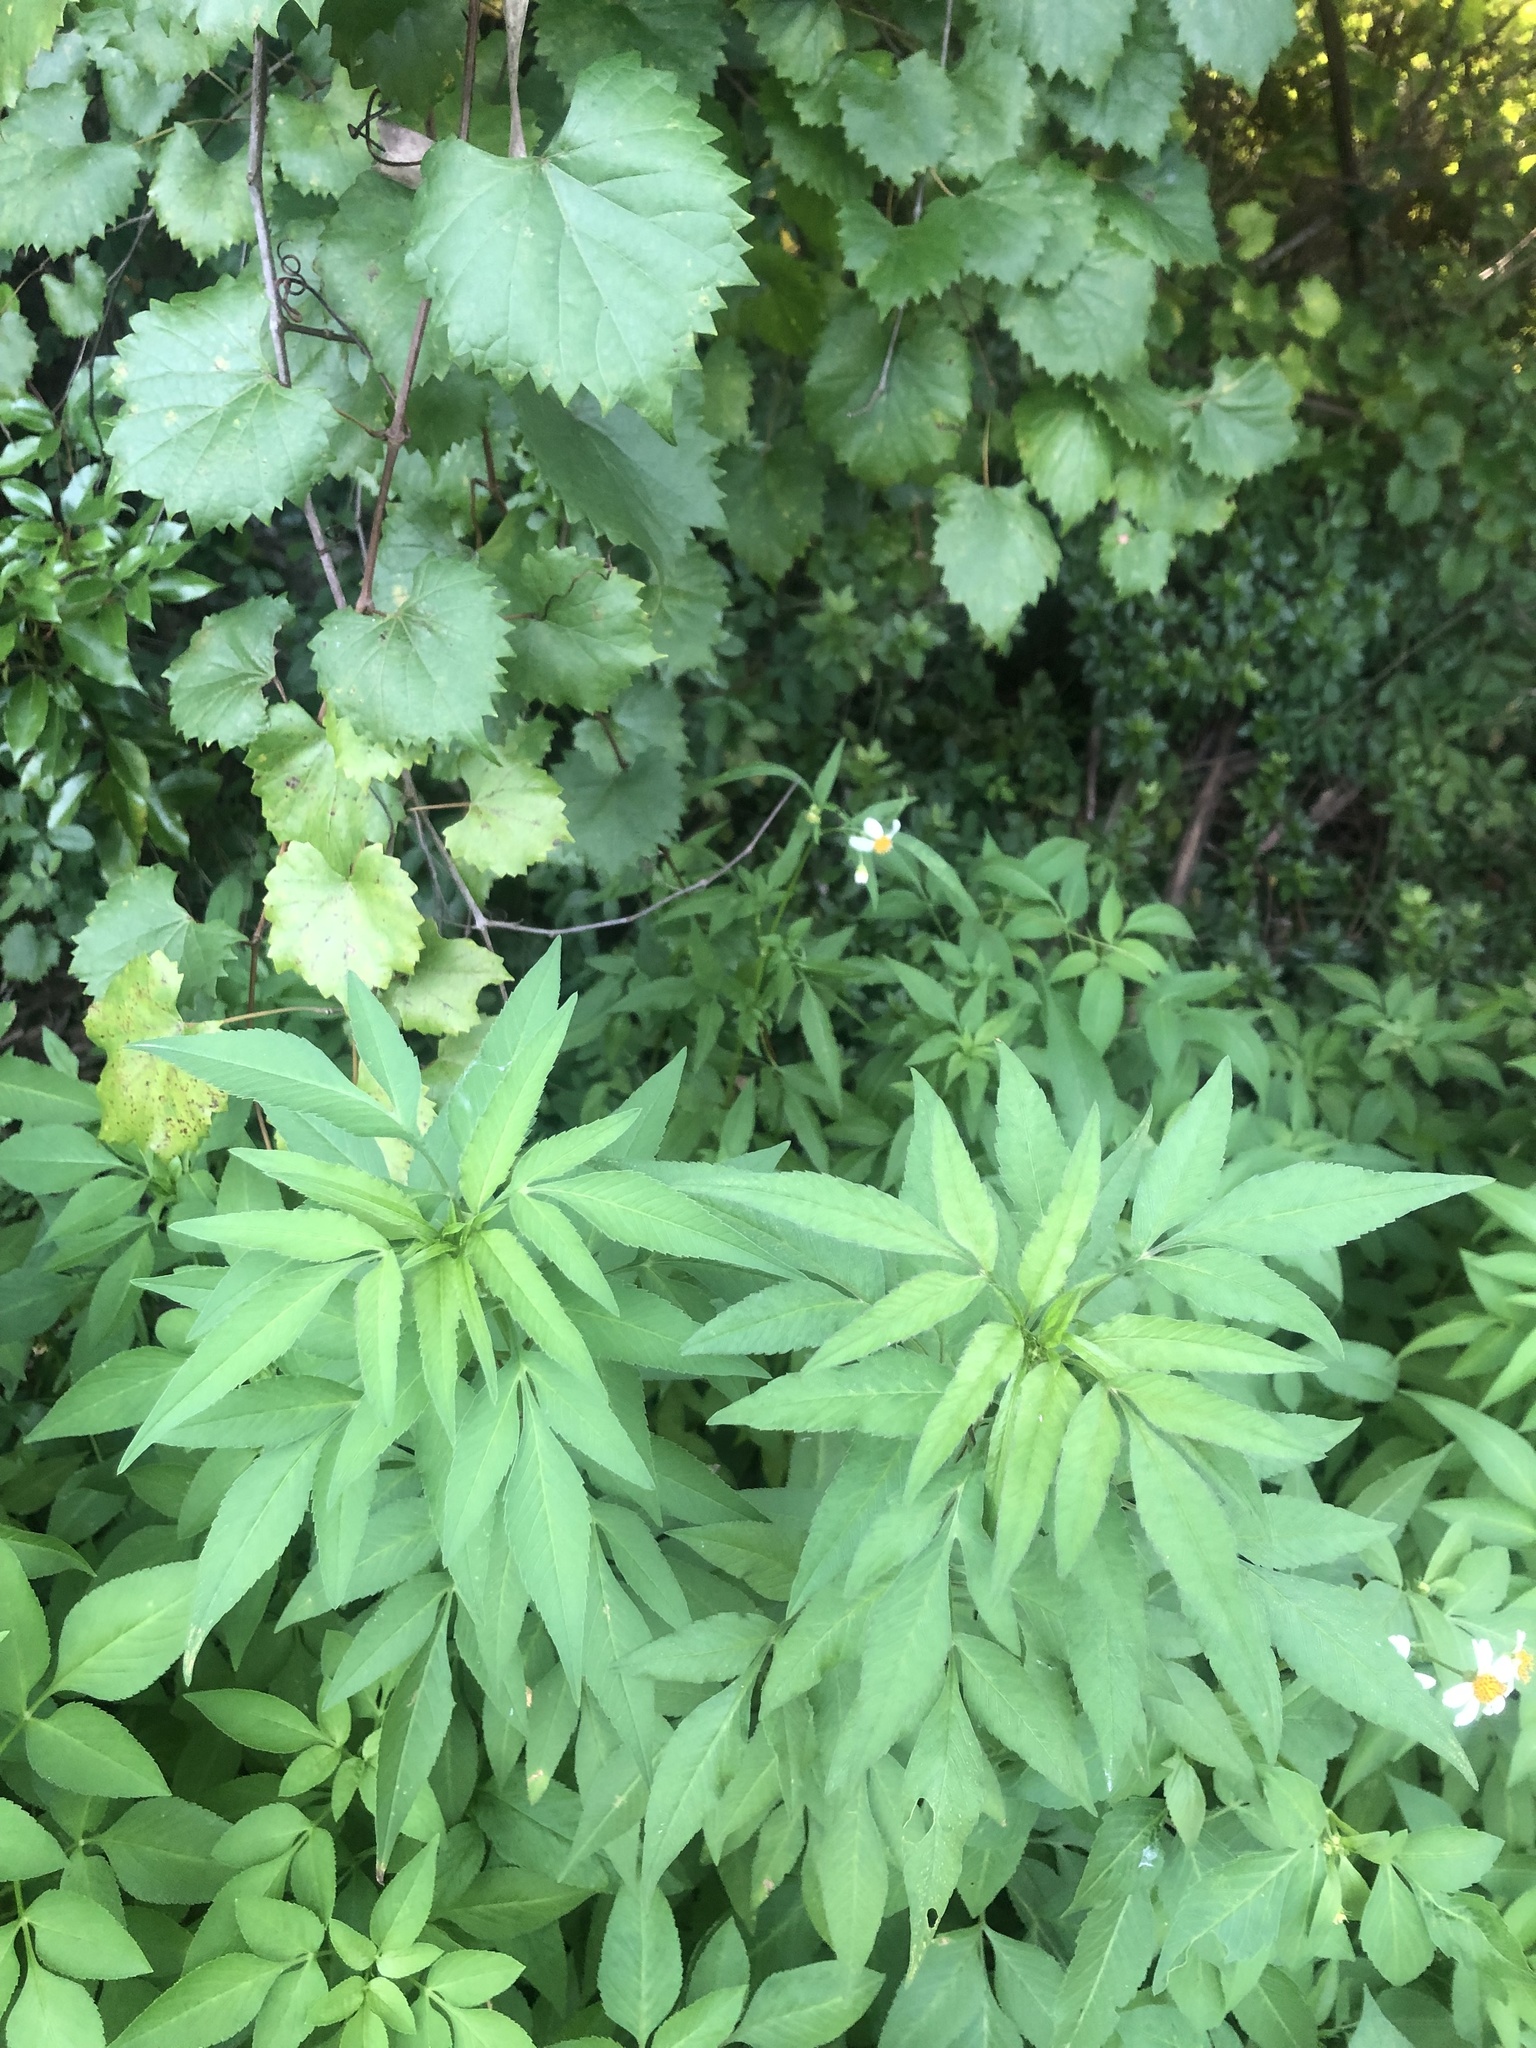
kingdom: Plantae
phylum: Tracheophyta
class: Magnoliopsida
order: Asterales
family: Asteraceae
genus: Bidens
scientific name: Bidens alba
